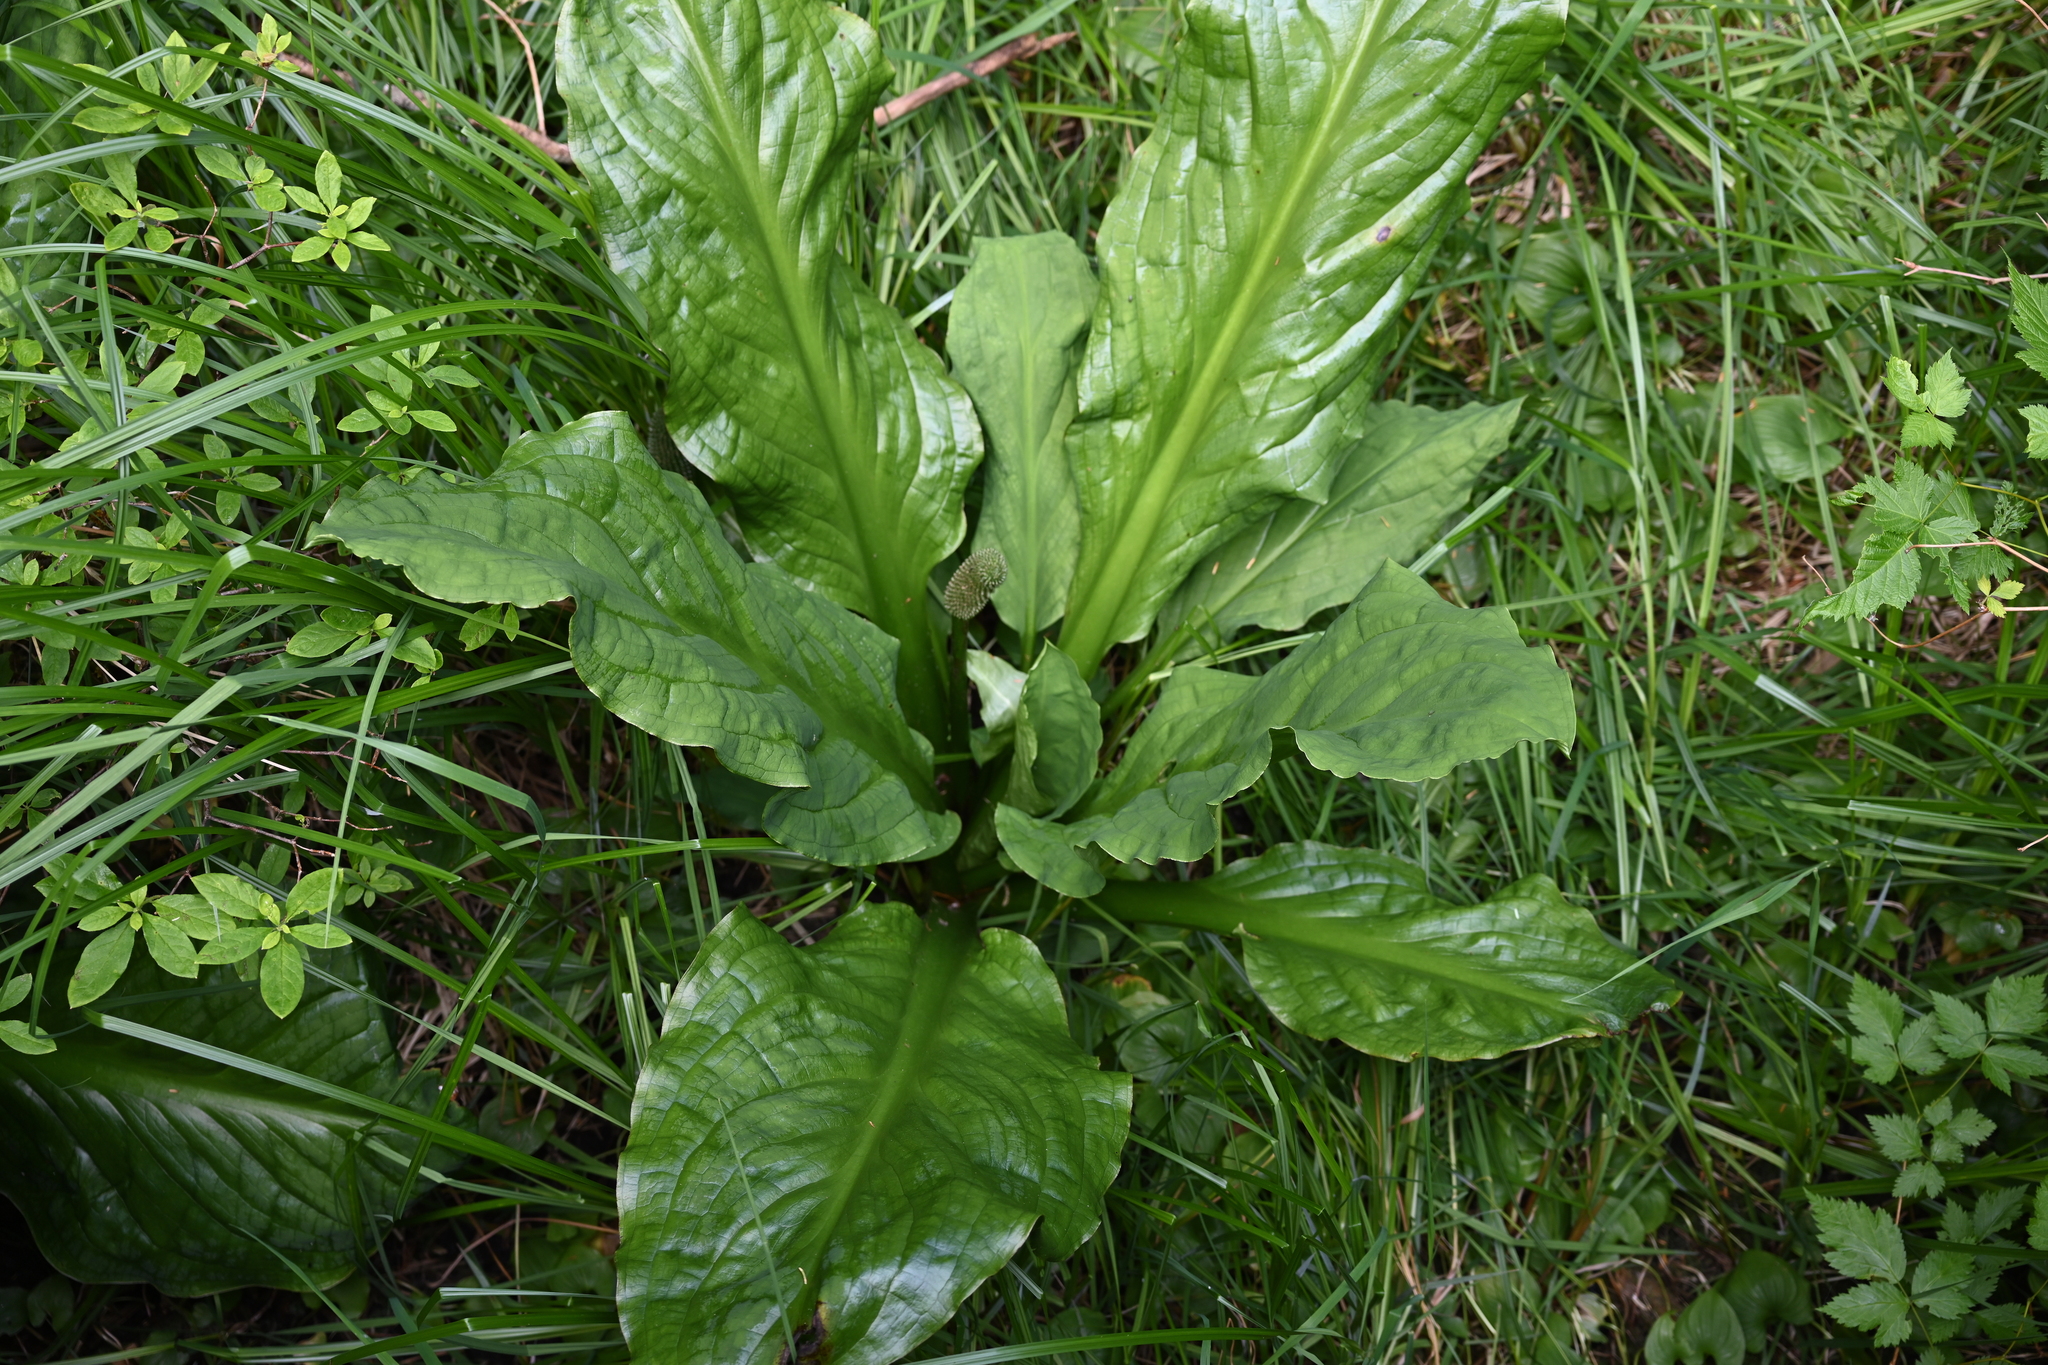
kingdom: Plantae
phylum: Tracheophyta
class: Liliopsida
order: Alismatales
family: Araceae
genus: Lysichiton
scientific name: Lysichiton americanus
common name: American skunk cabbage
